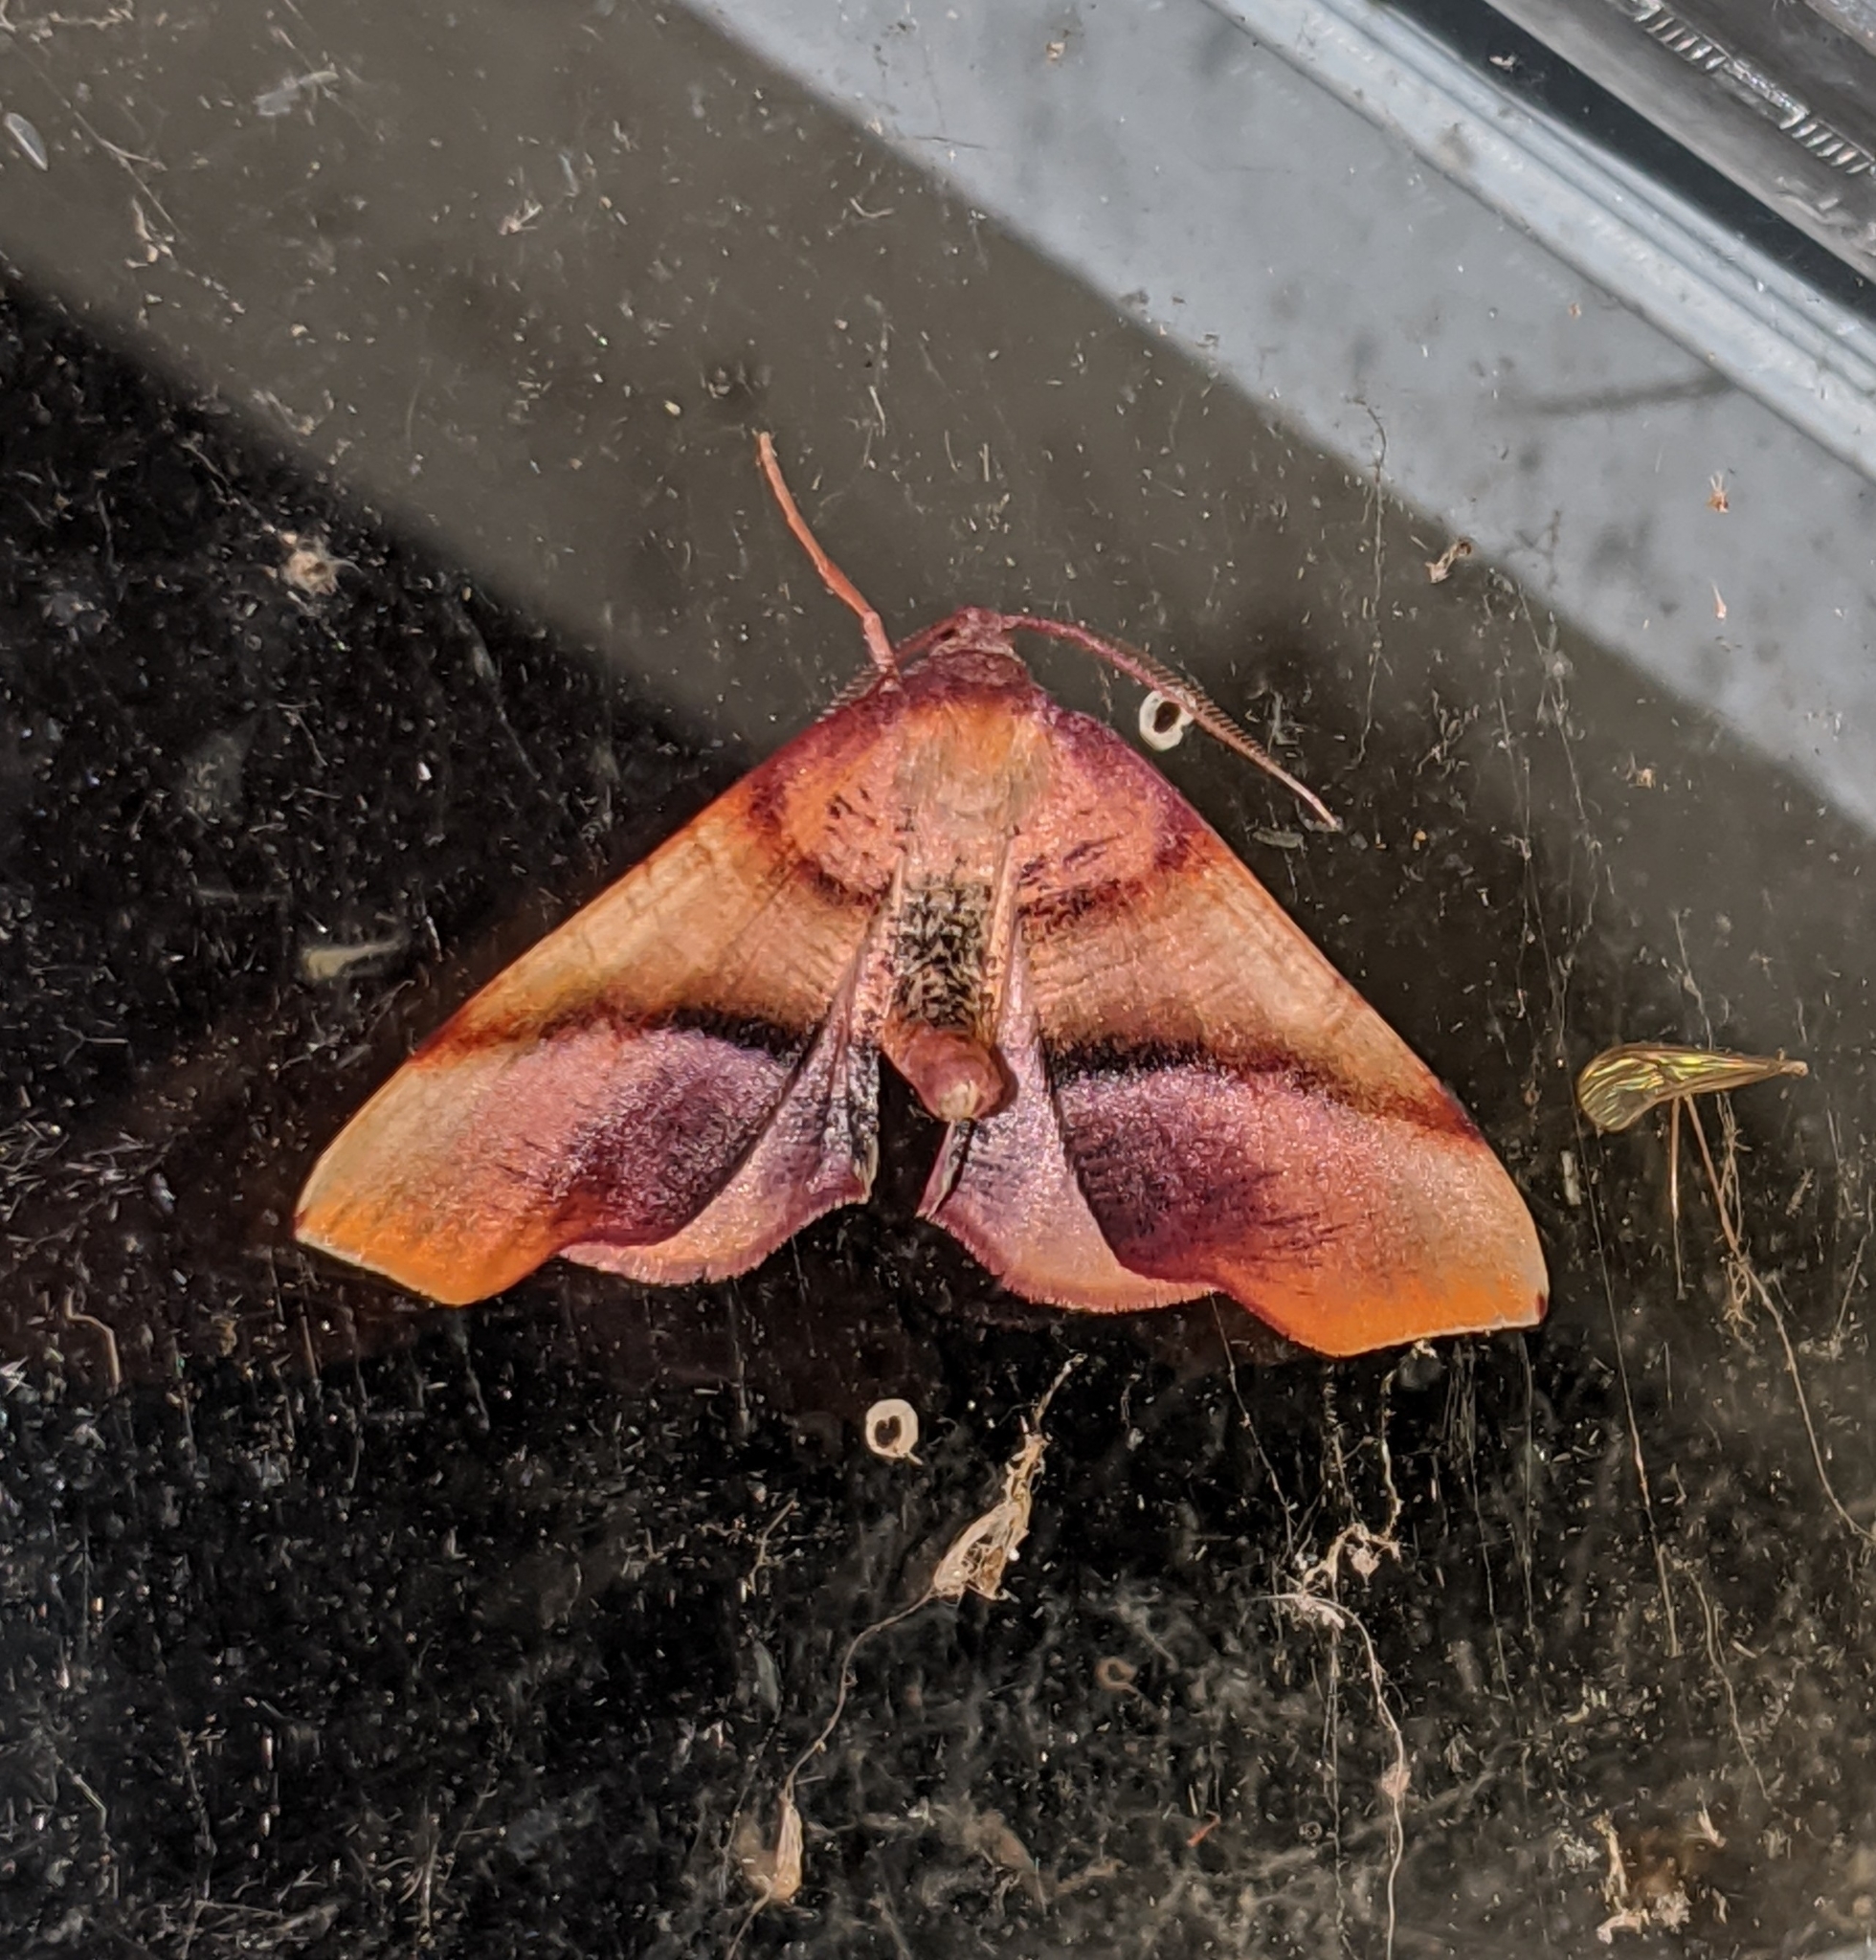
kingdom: Animalia
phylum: Arthropoda
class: Insecta
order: Lepidoptera
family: Geometridae
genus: Plagodis
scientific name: Plagodis phlogosaria
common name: Straight-lined plagodis
